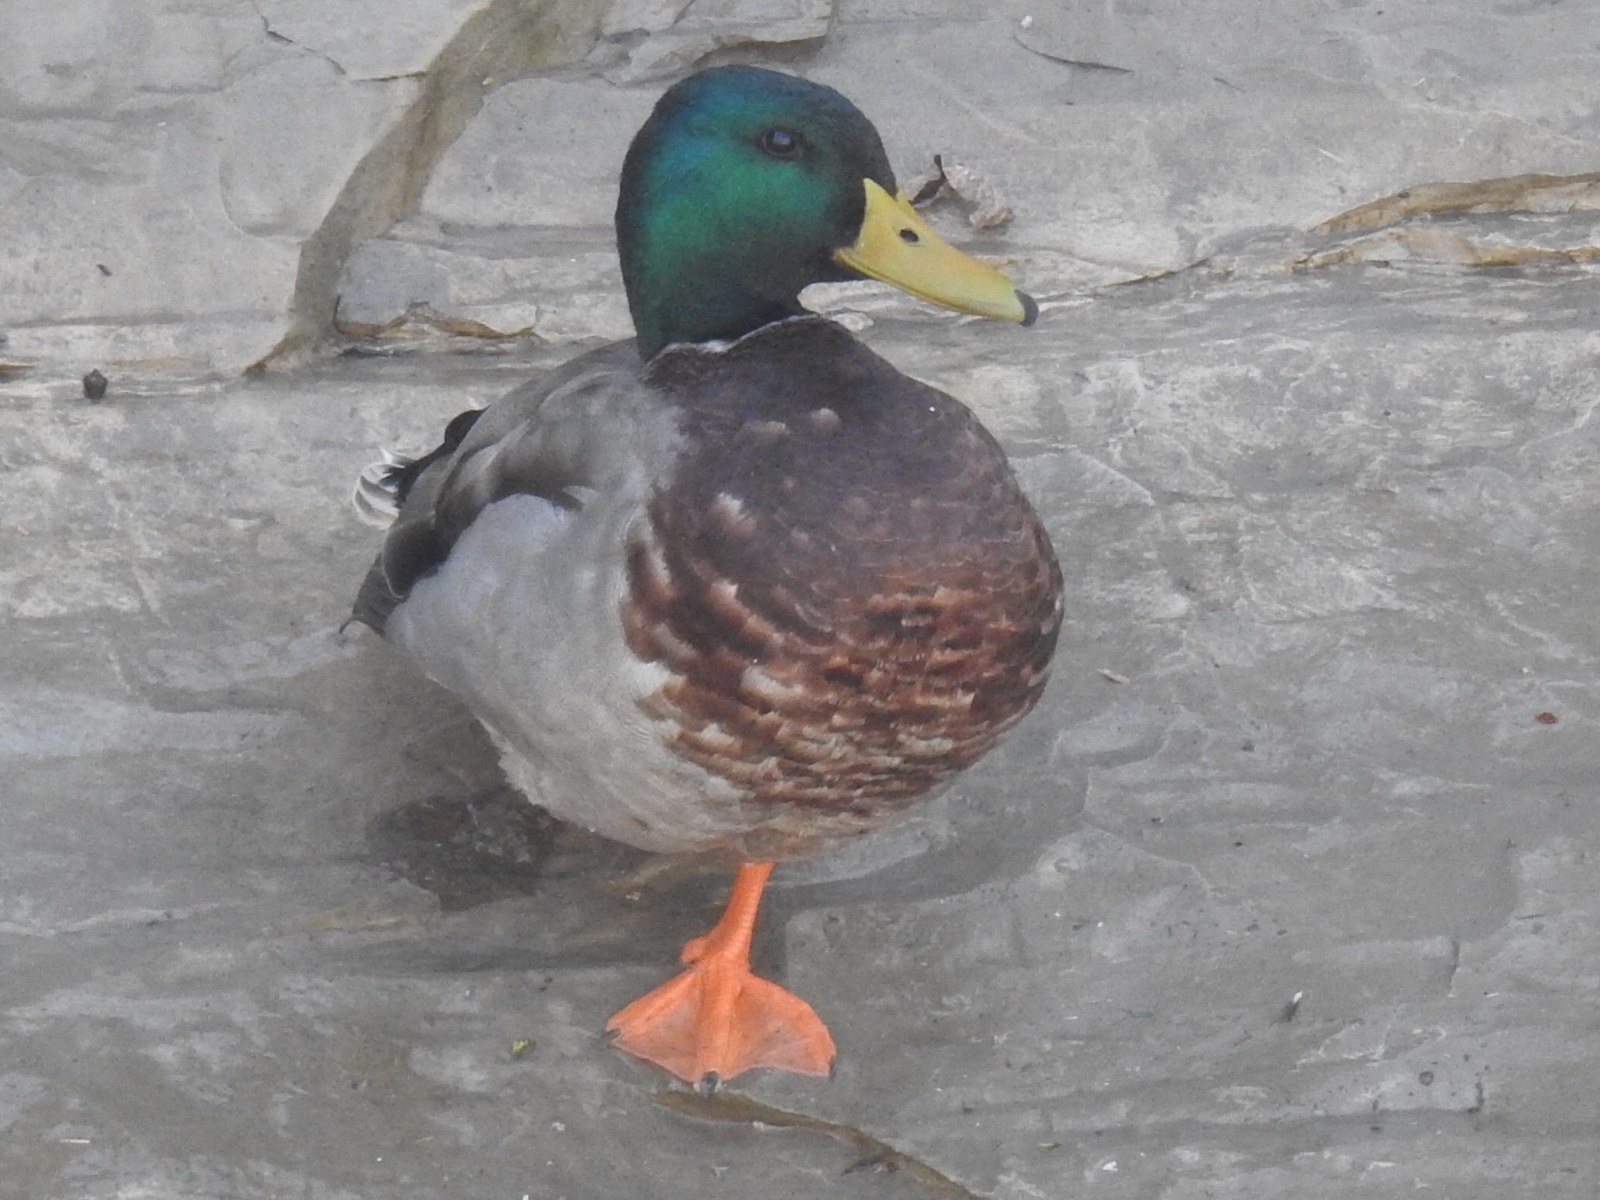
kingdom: Animalia
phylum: Chordata
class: Aves
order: Anseriformes
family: Anatidae
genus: Anas
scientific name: Anas platyrhynchos
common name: Mallard
